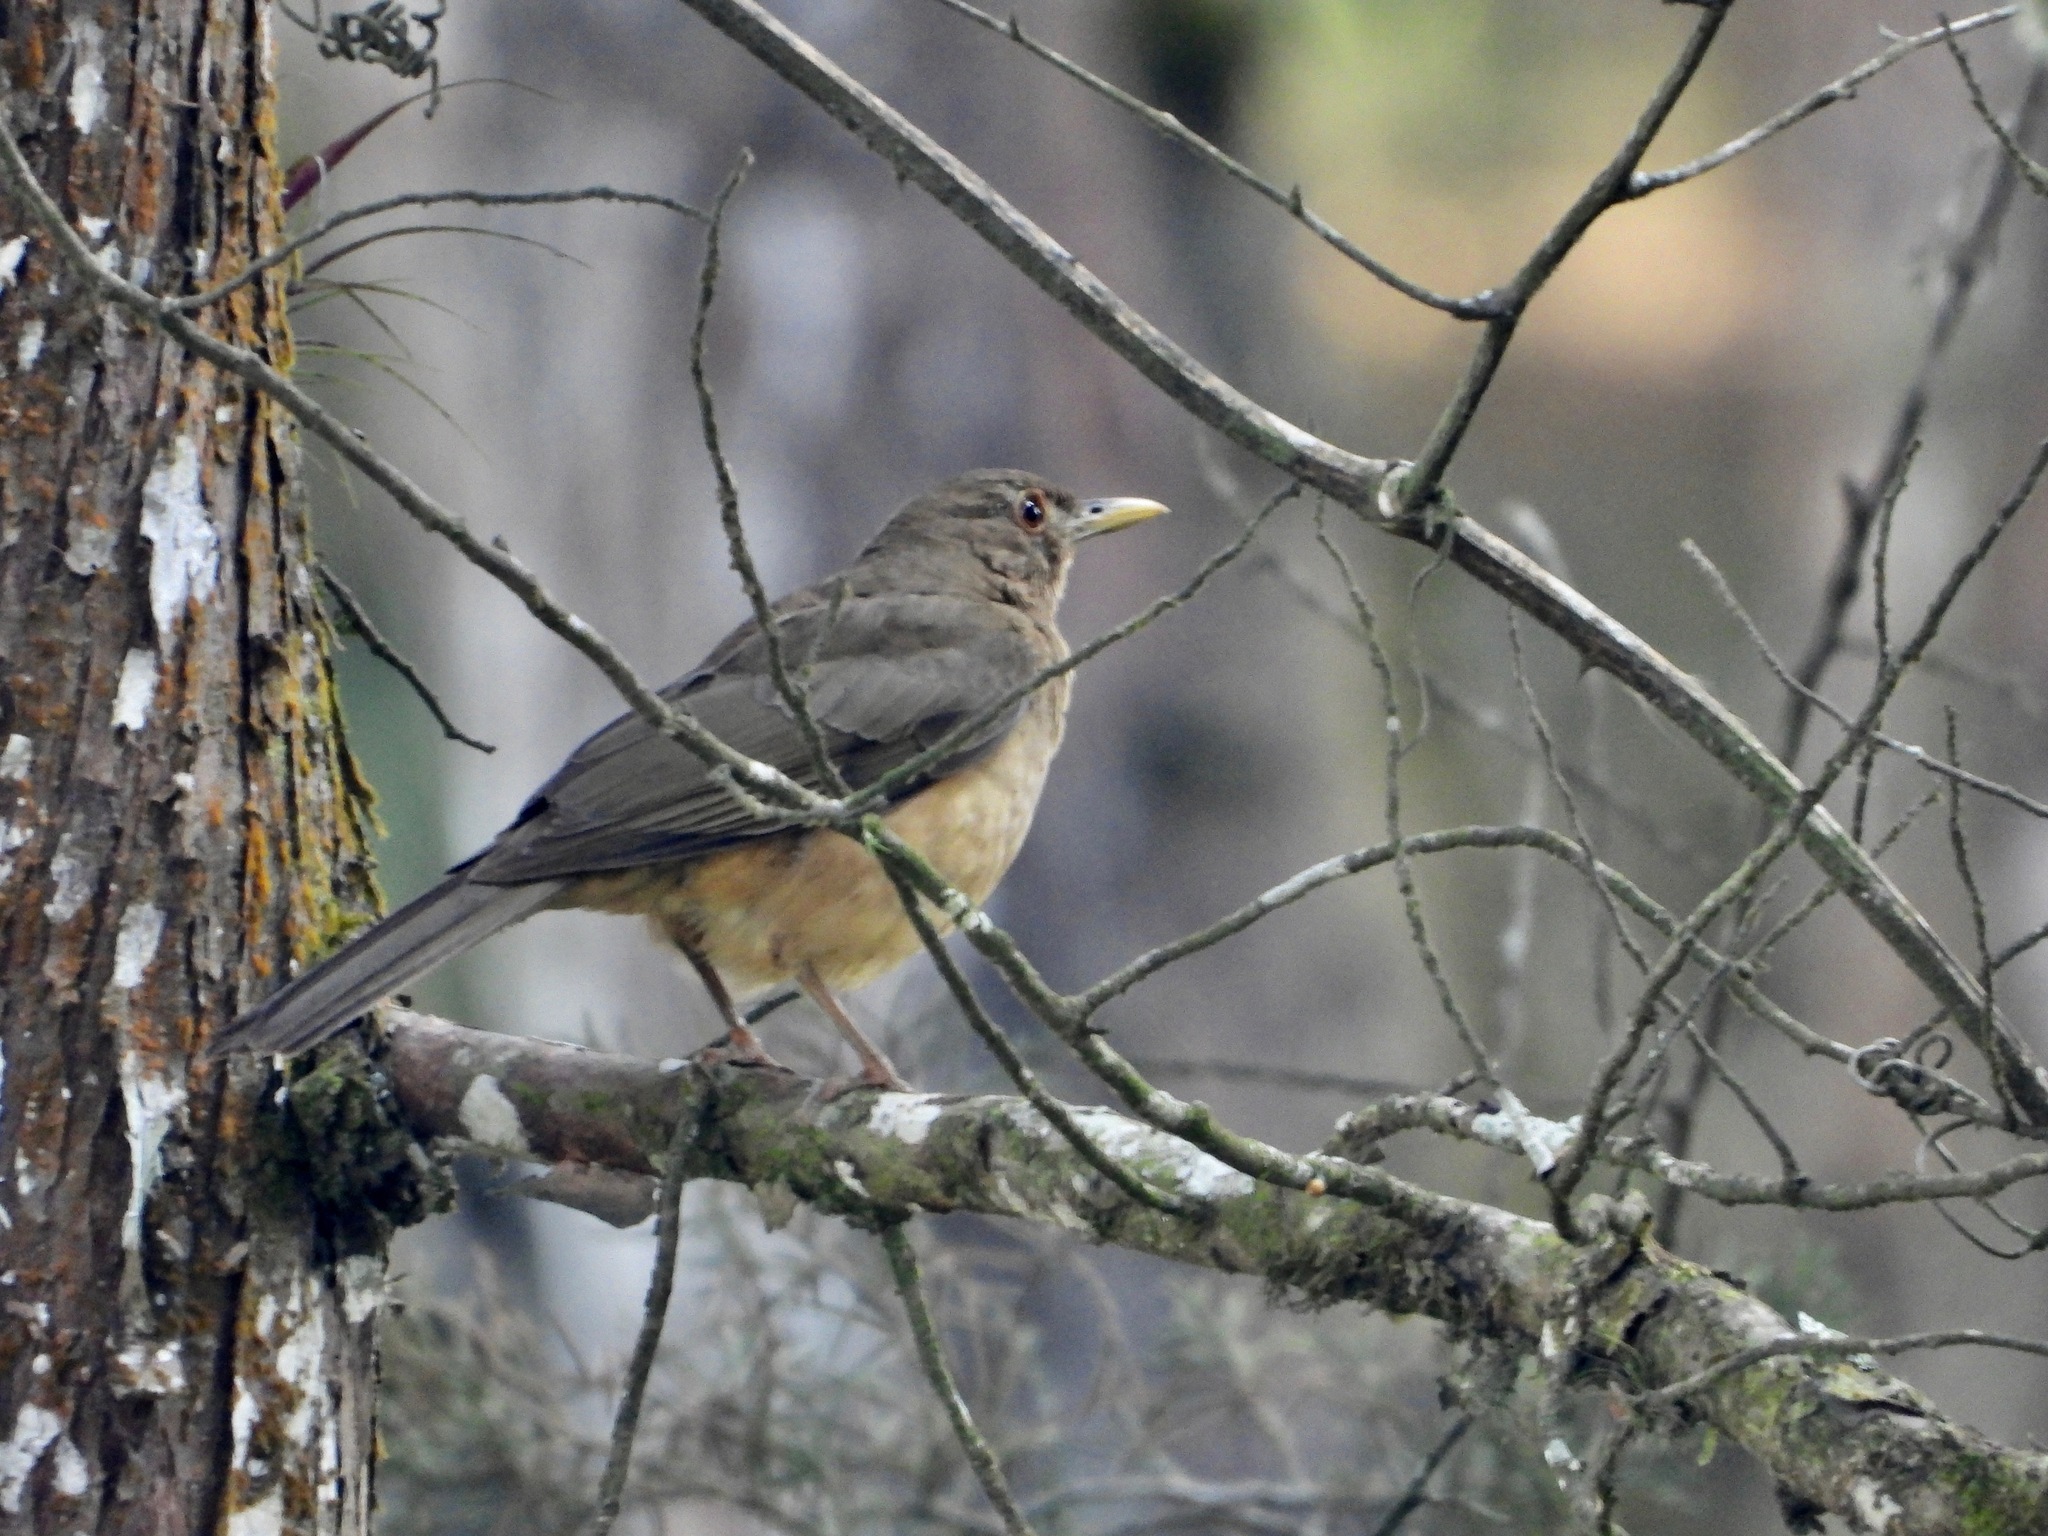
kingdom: Animalia
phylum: Chordata
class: Aves
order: Passeriformes
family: Turdidae
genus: Turdus
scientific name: Turdus grayi
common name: Clay-colored thrush
